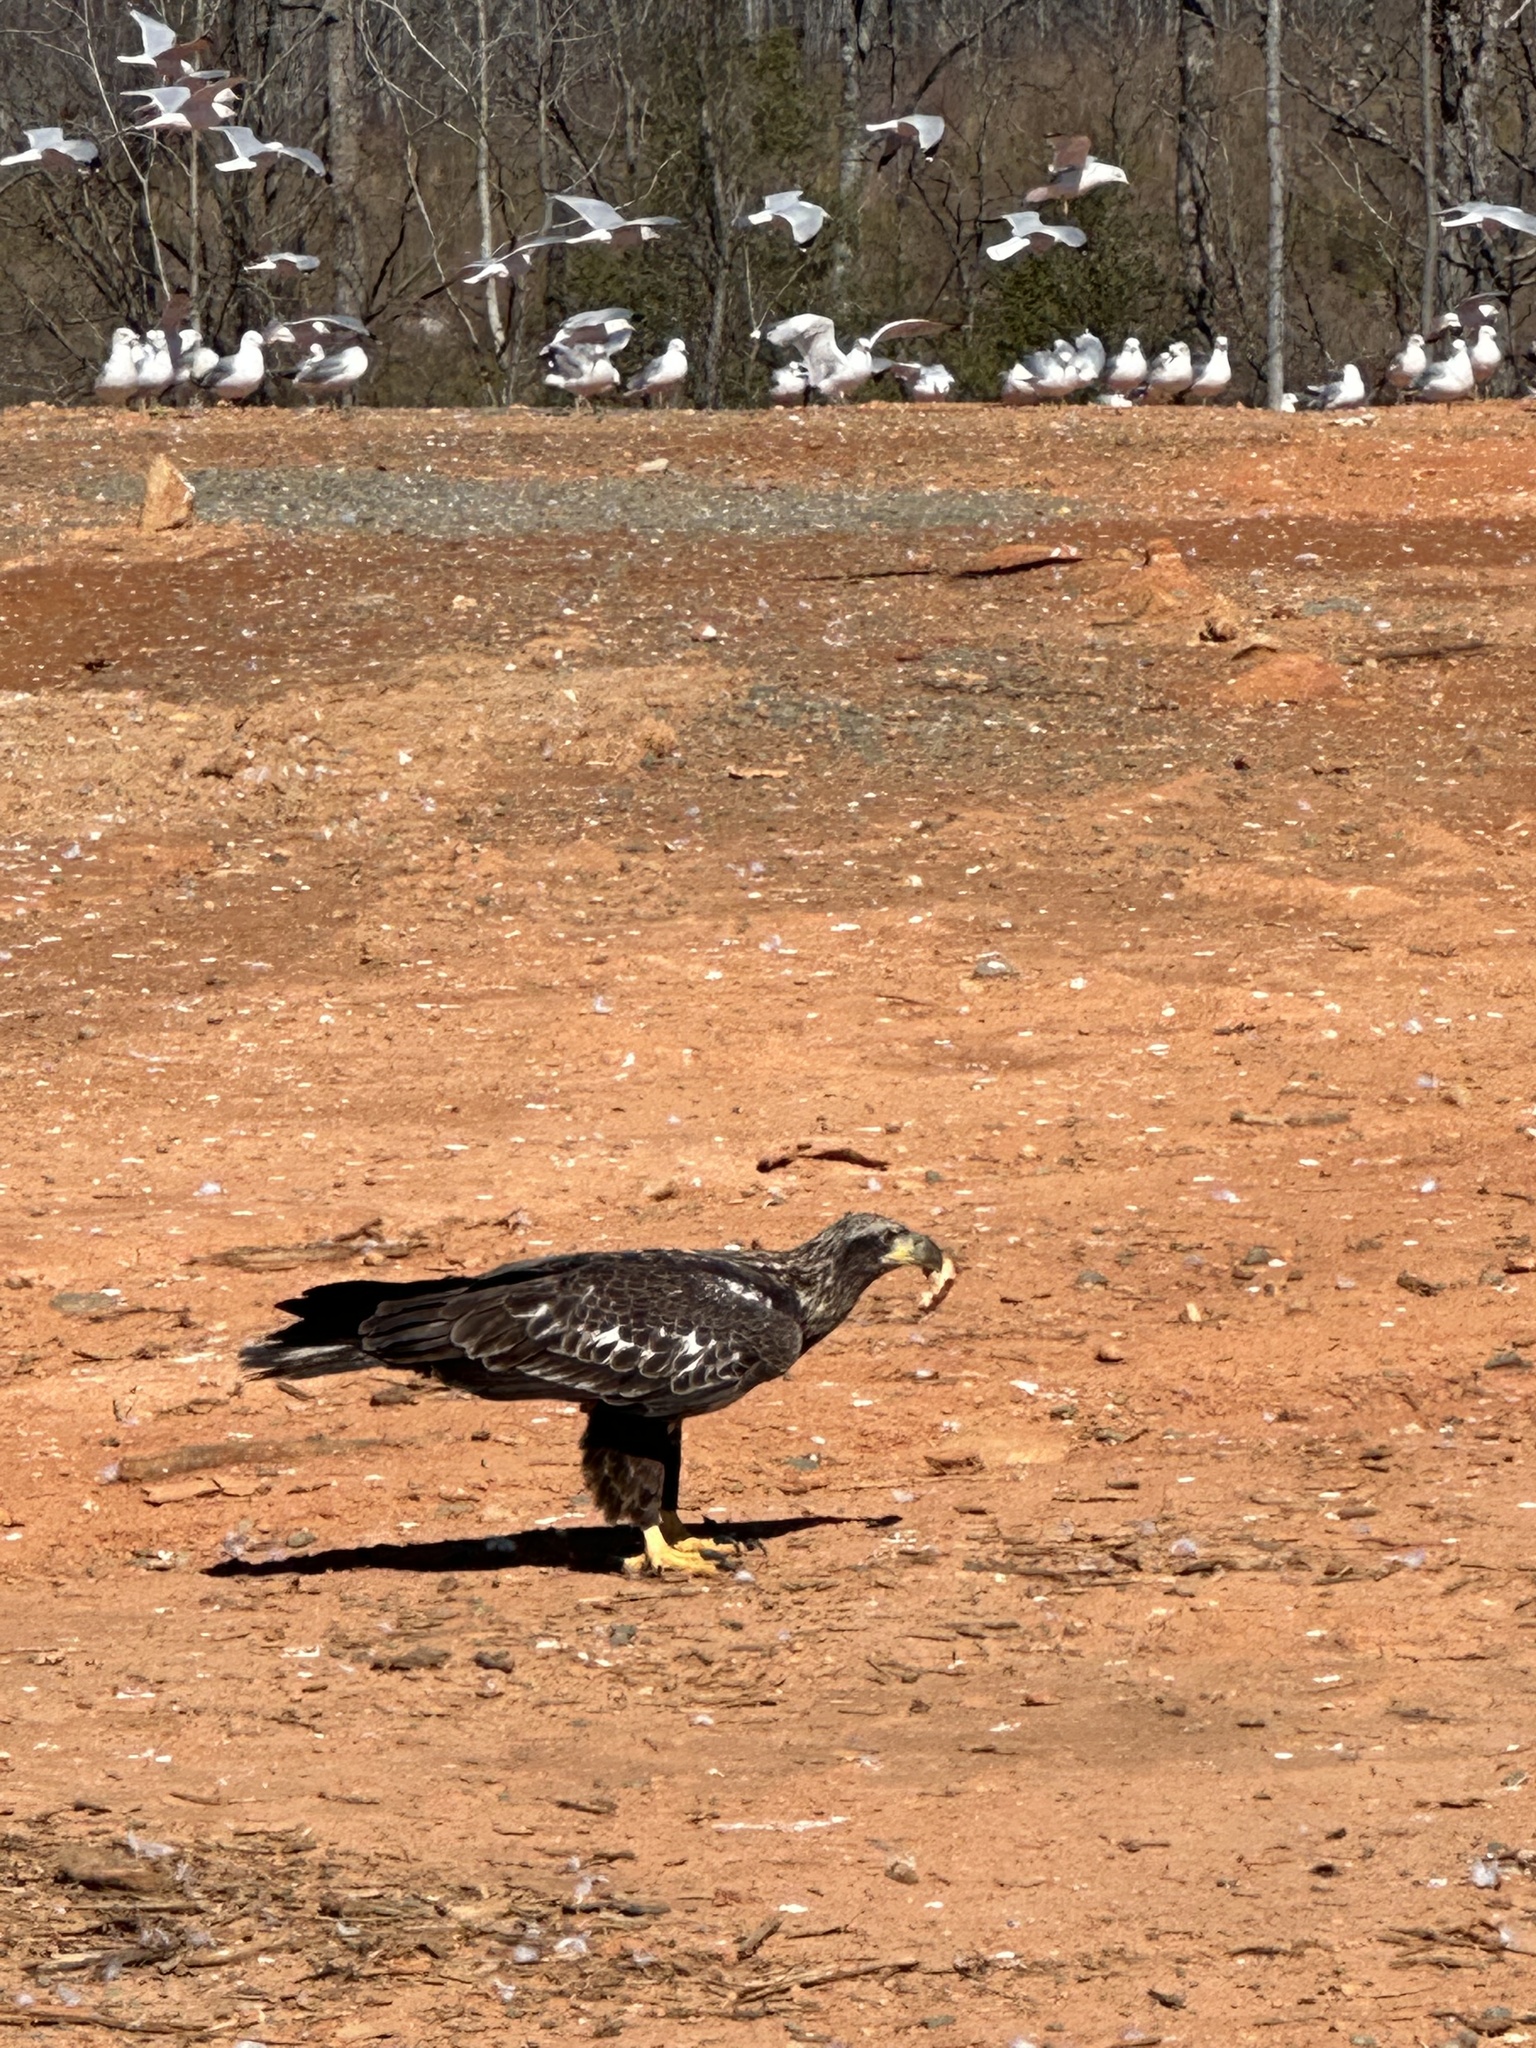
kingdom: Animalia
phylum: Chordata
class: Aves
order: Accipitriformes
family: Accipitridae
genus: Haliaeetus
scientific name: Haliaeetus leucocephalus
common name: Bald eagle
